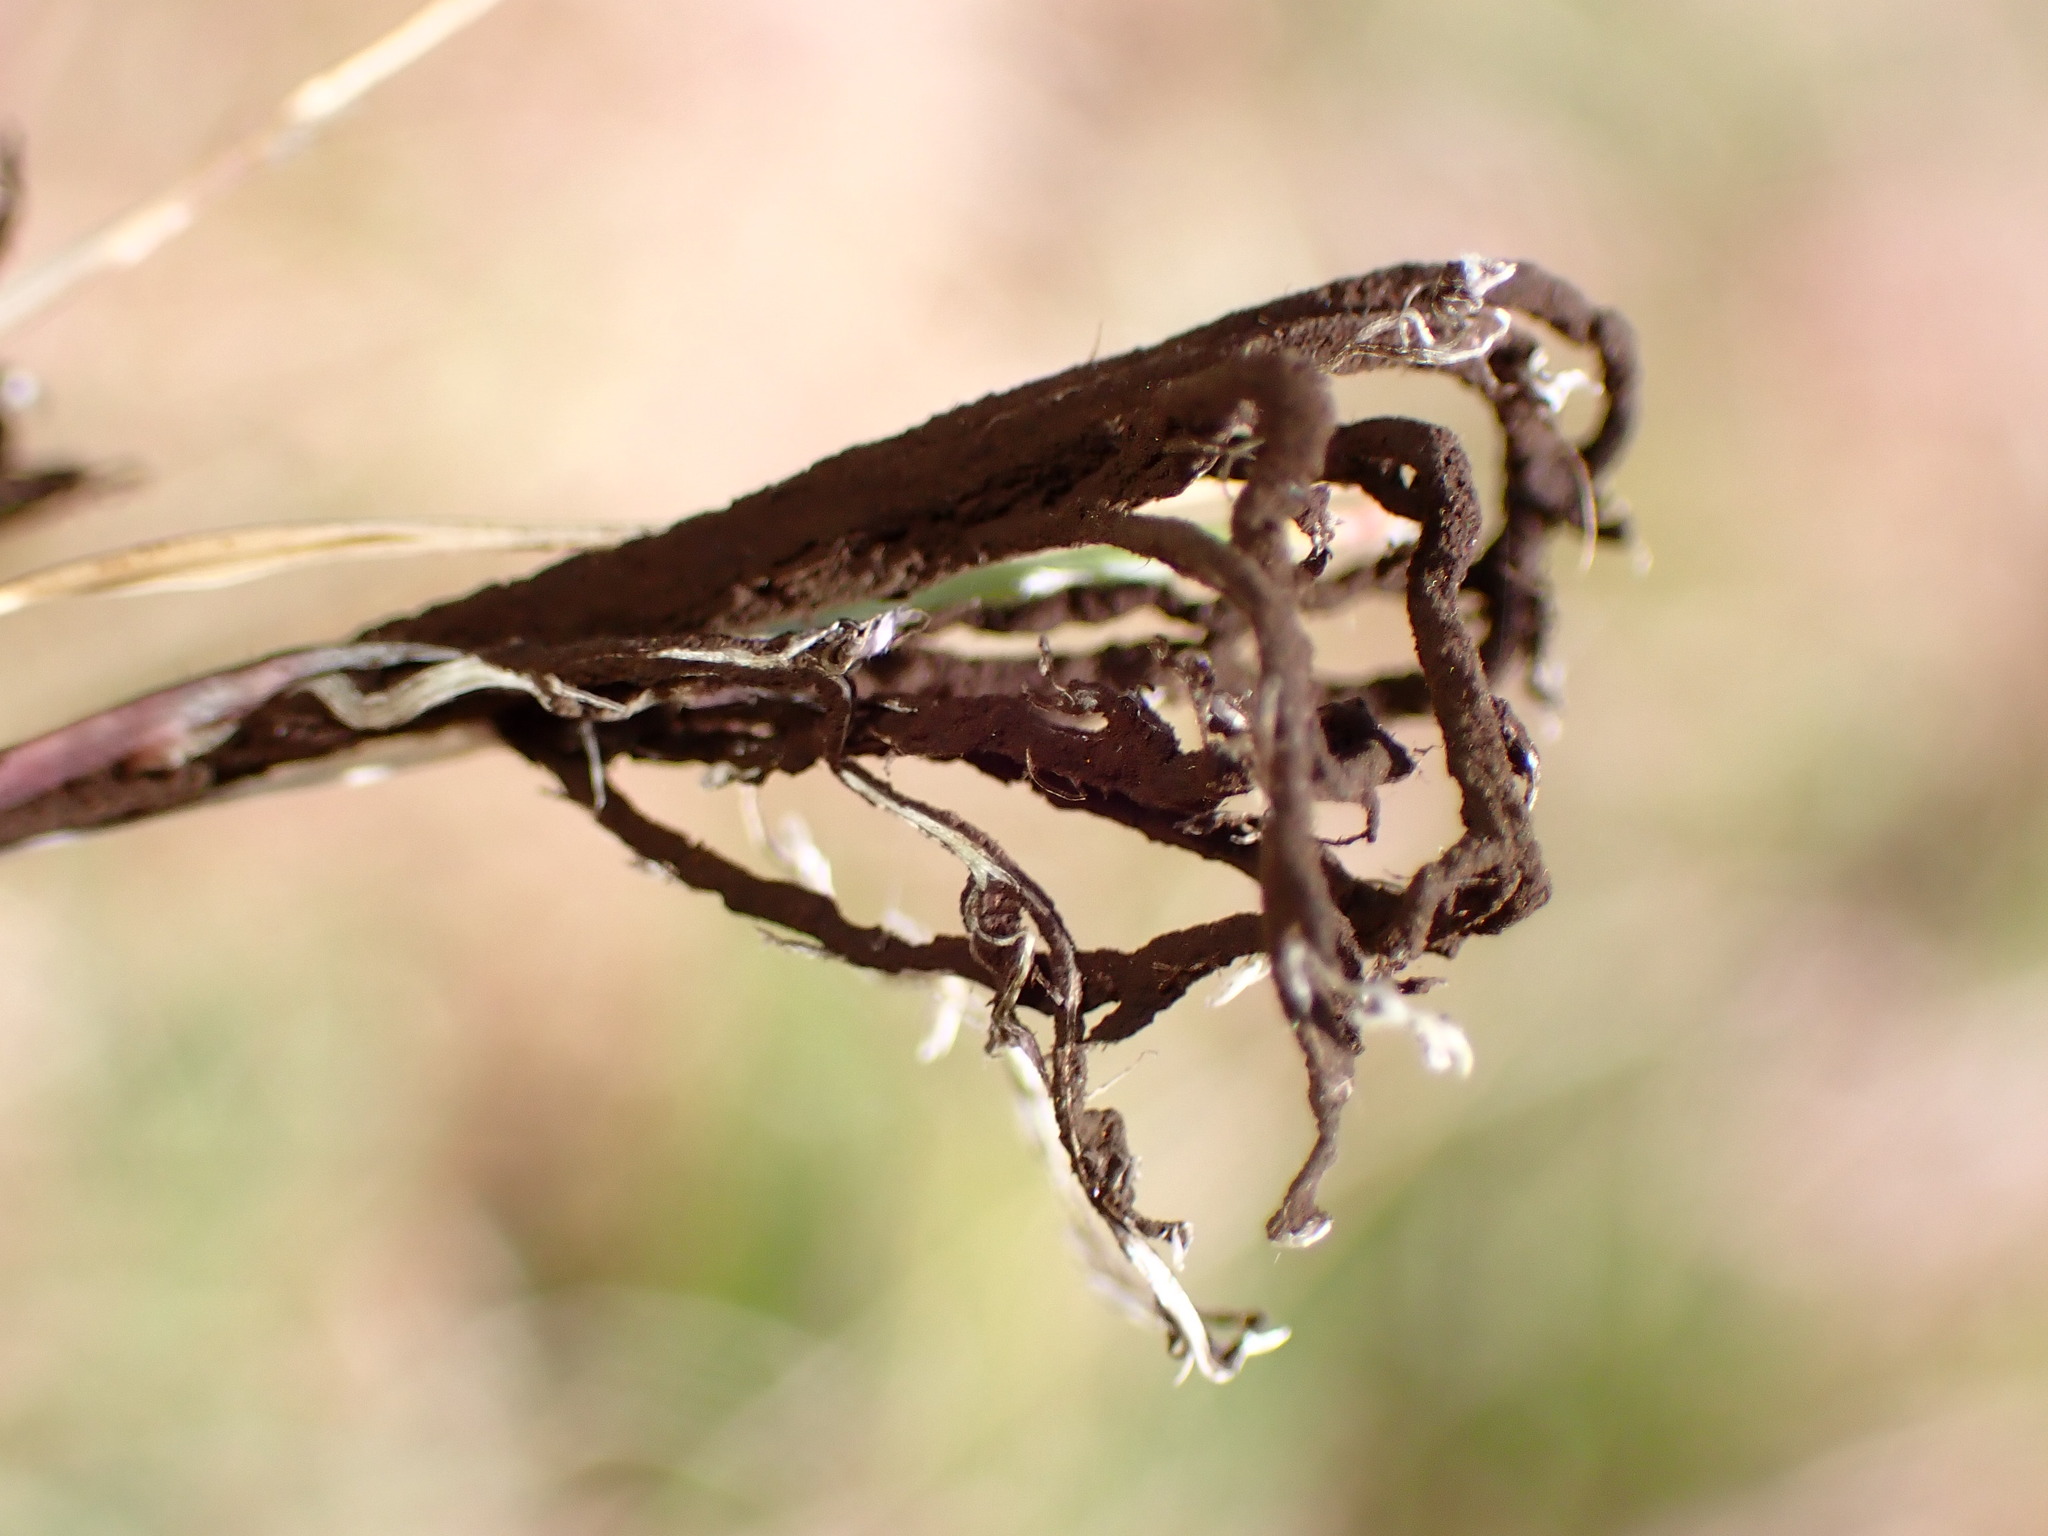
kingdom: Fungi
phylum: Basidiomycota
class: Ustilaginomycetes
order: Ustilaginales
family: Ustilaginaceae
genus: Ustilago
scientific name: Ustilago cynodontis
